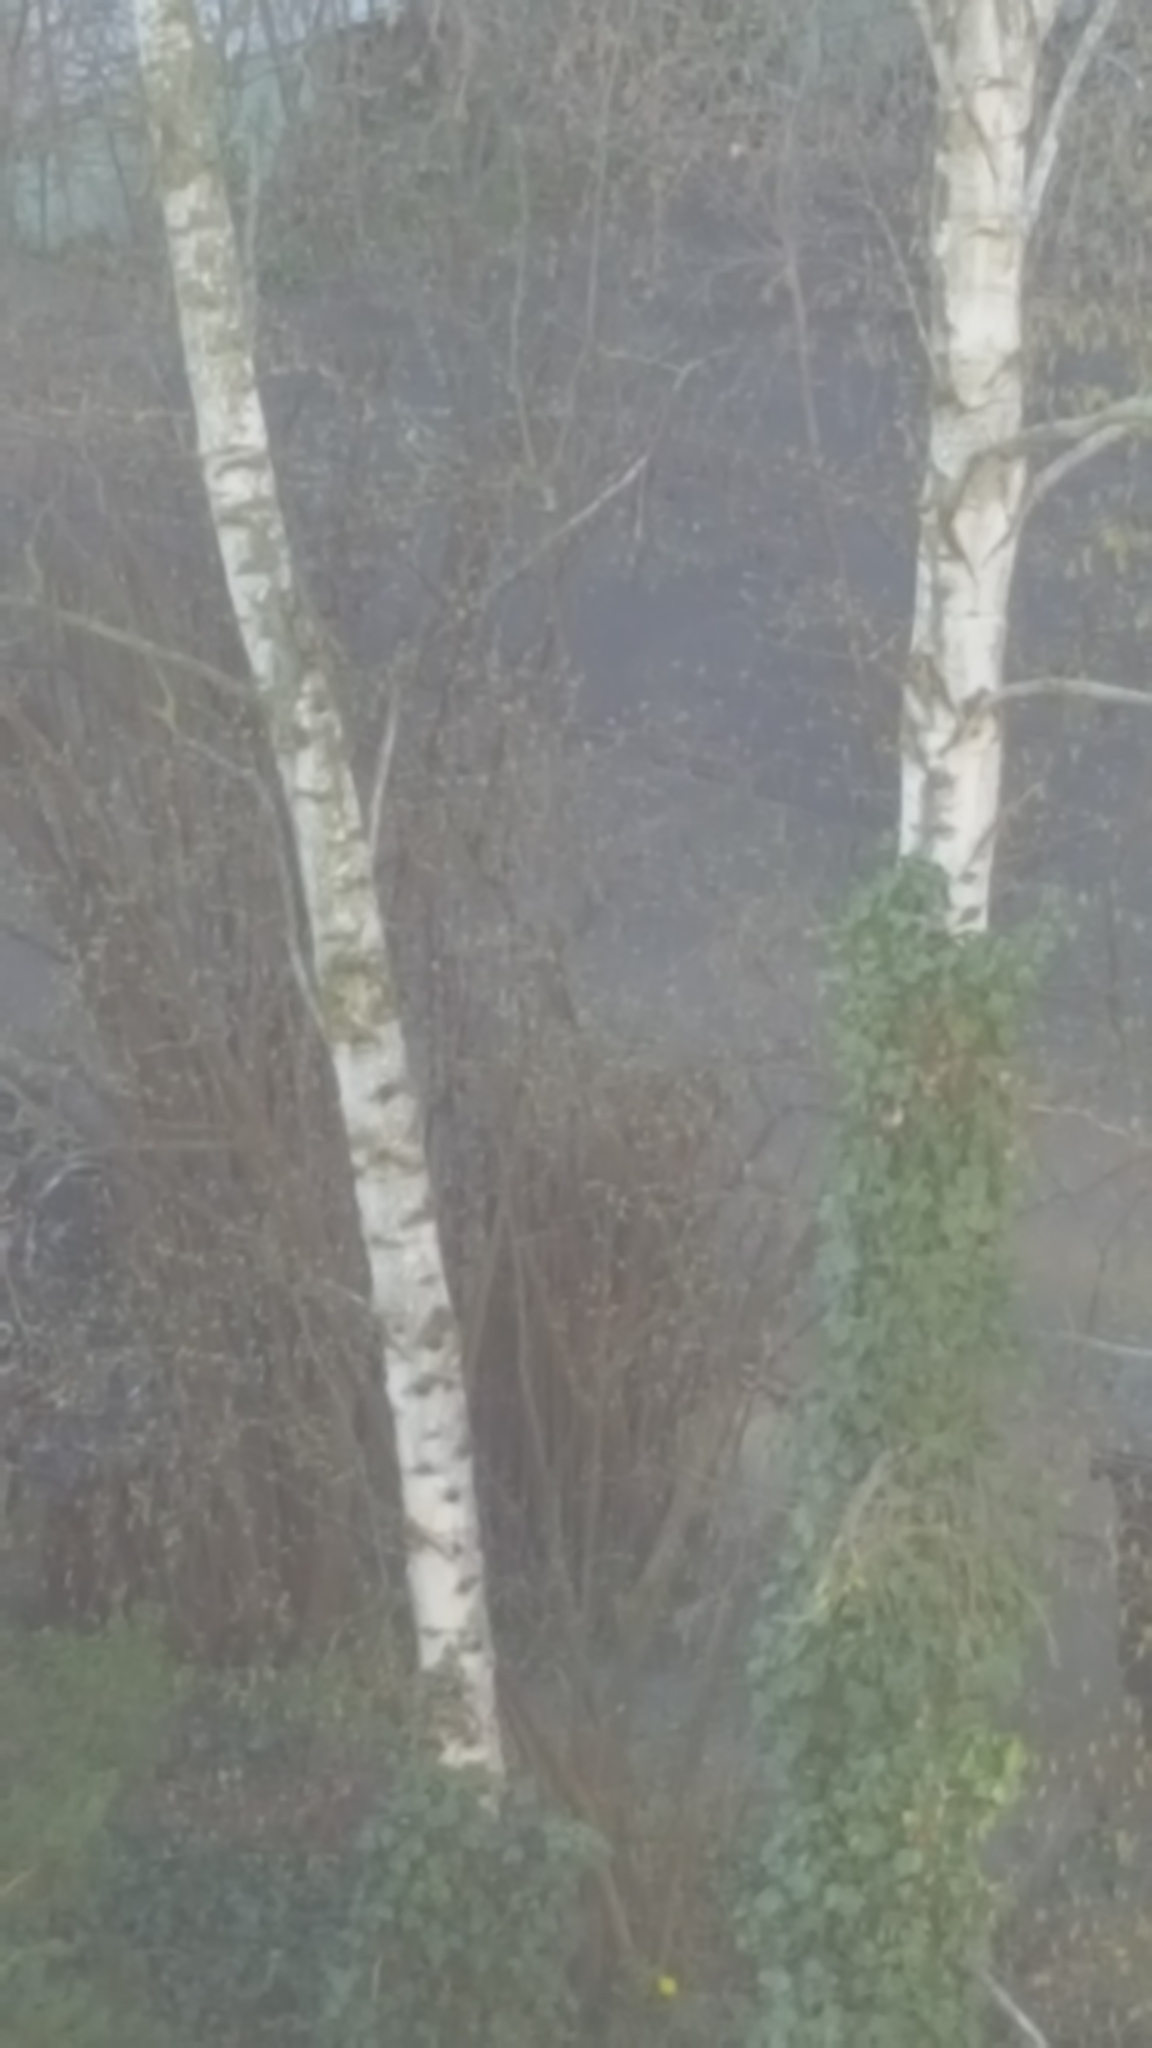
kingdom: Plantae
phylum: Tracheophyta
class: Magnoliopsida
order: Fagales
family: Betulaceae
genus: Betula
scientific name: Betula pendula
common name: Silver birch
